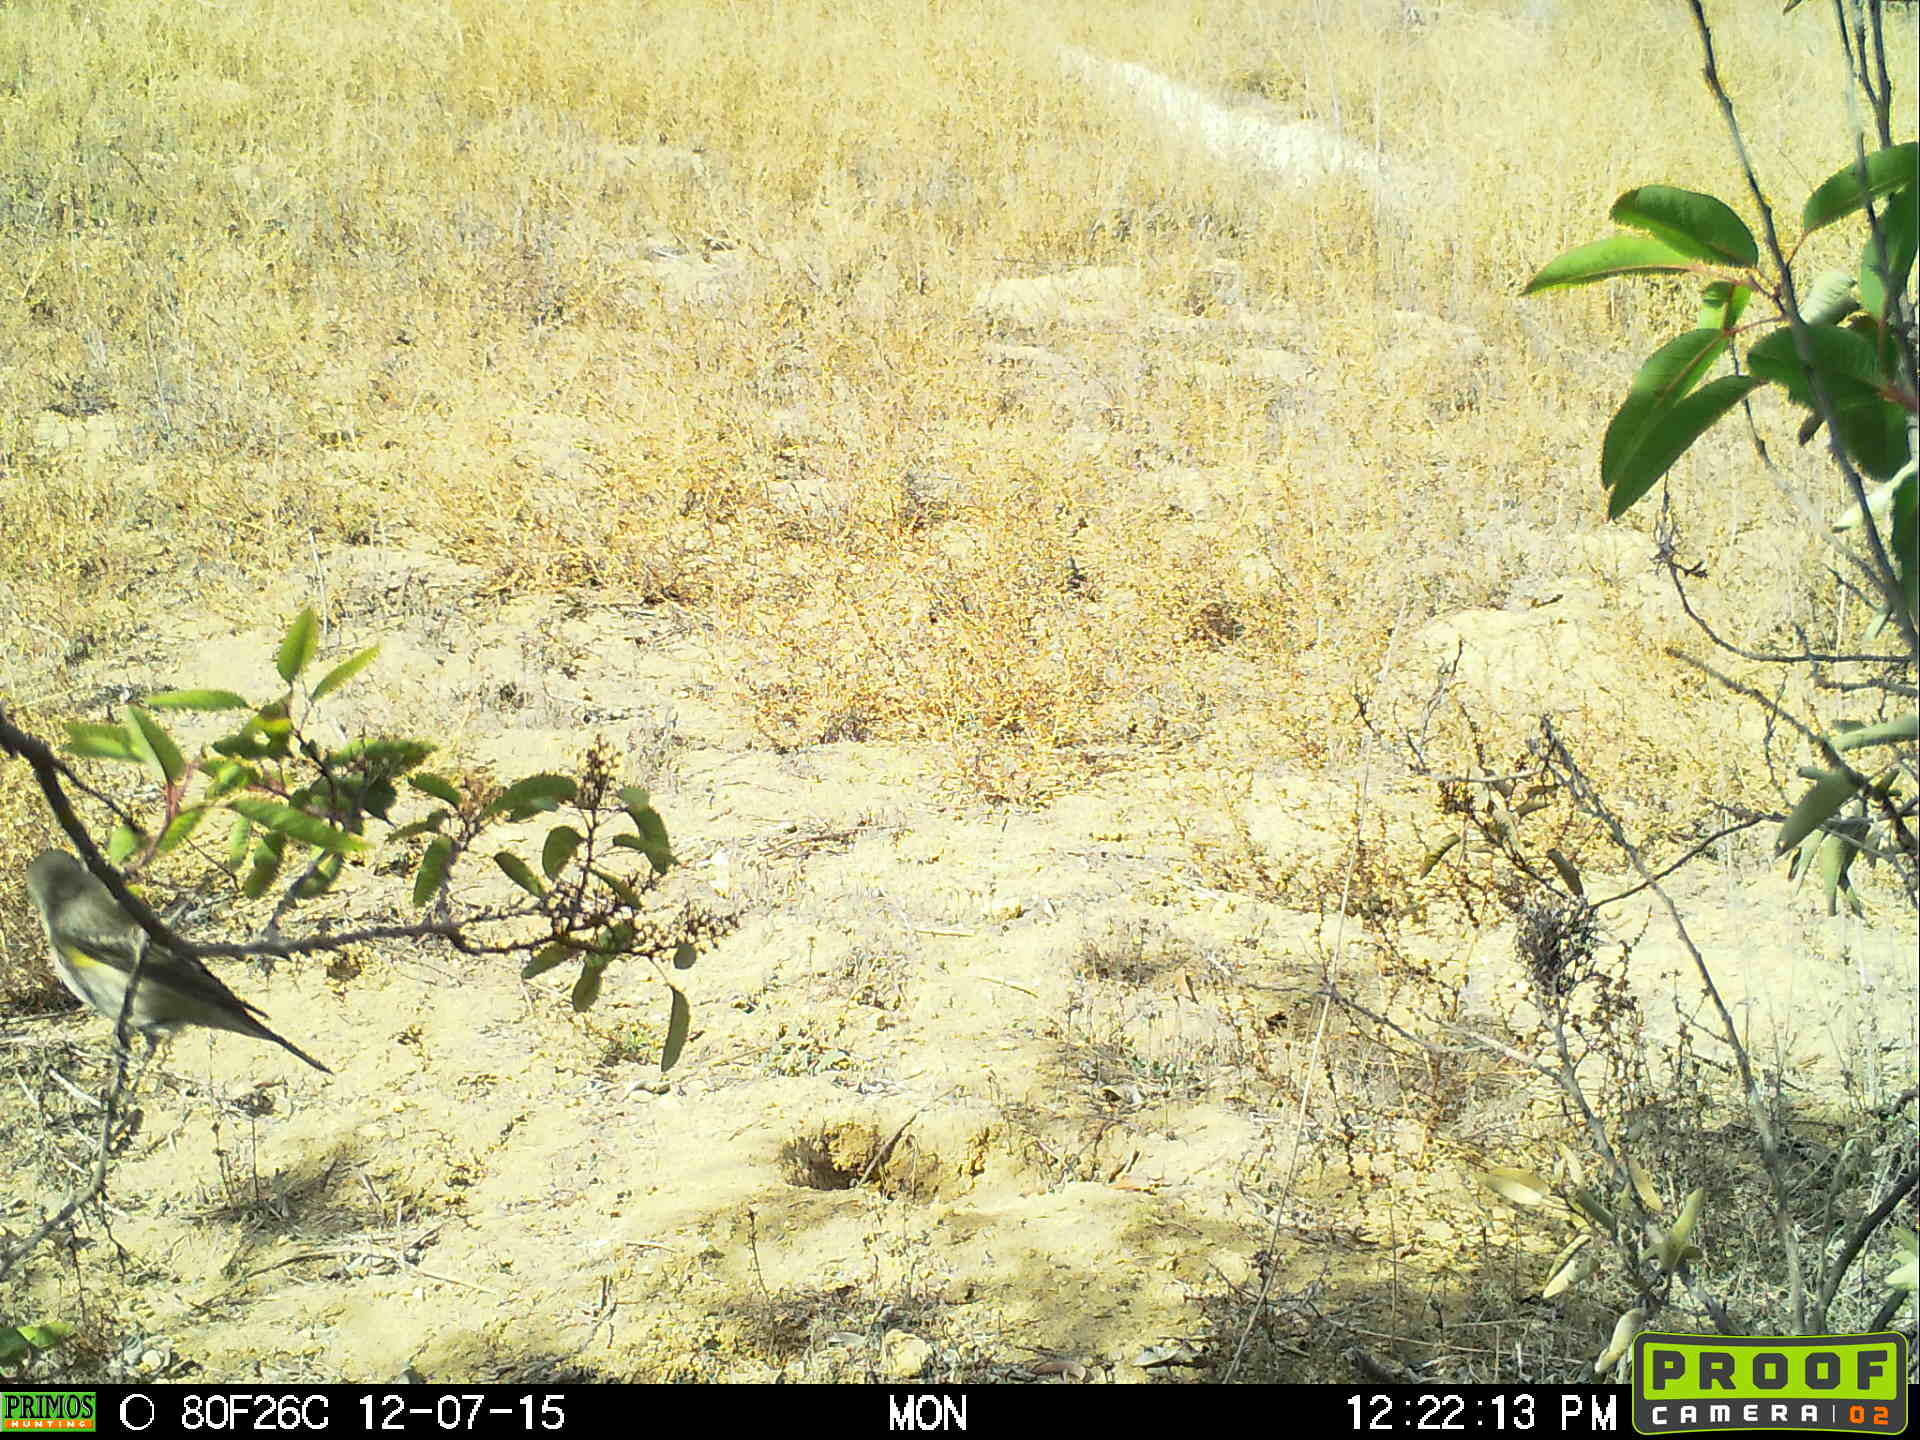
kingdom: Animalia
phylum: Chordata
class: Aves
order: Passeriformes
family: Parulidae
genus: Setophaga
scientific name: Setophaga coronata
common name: Myrtle warbler
